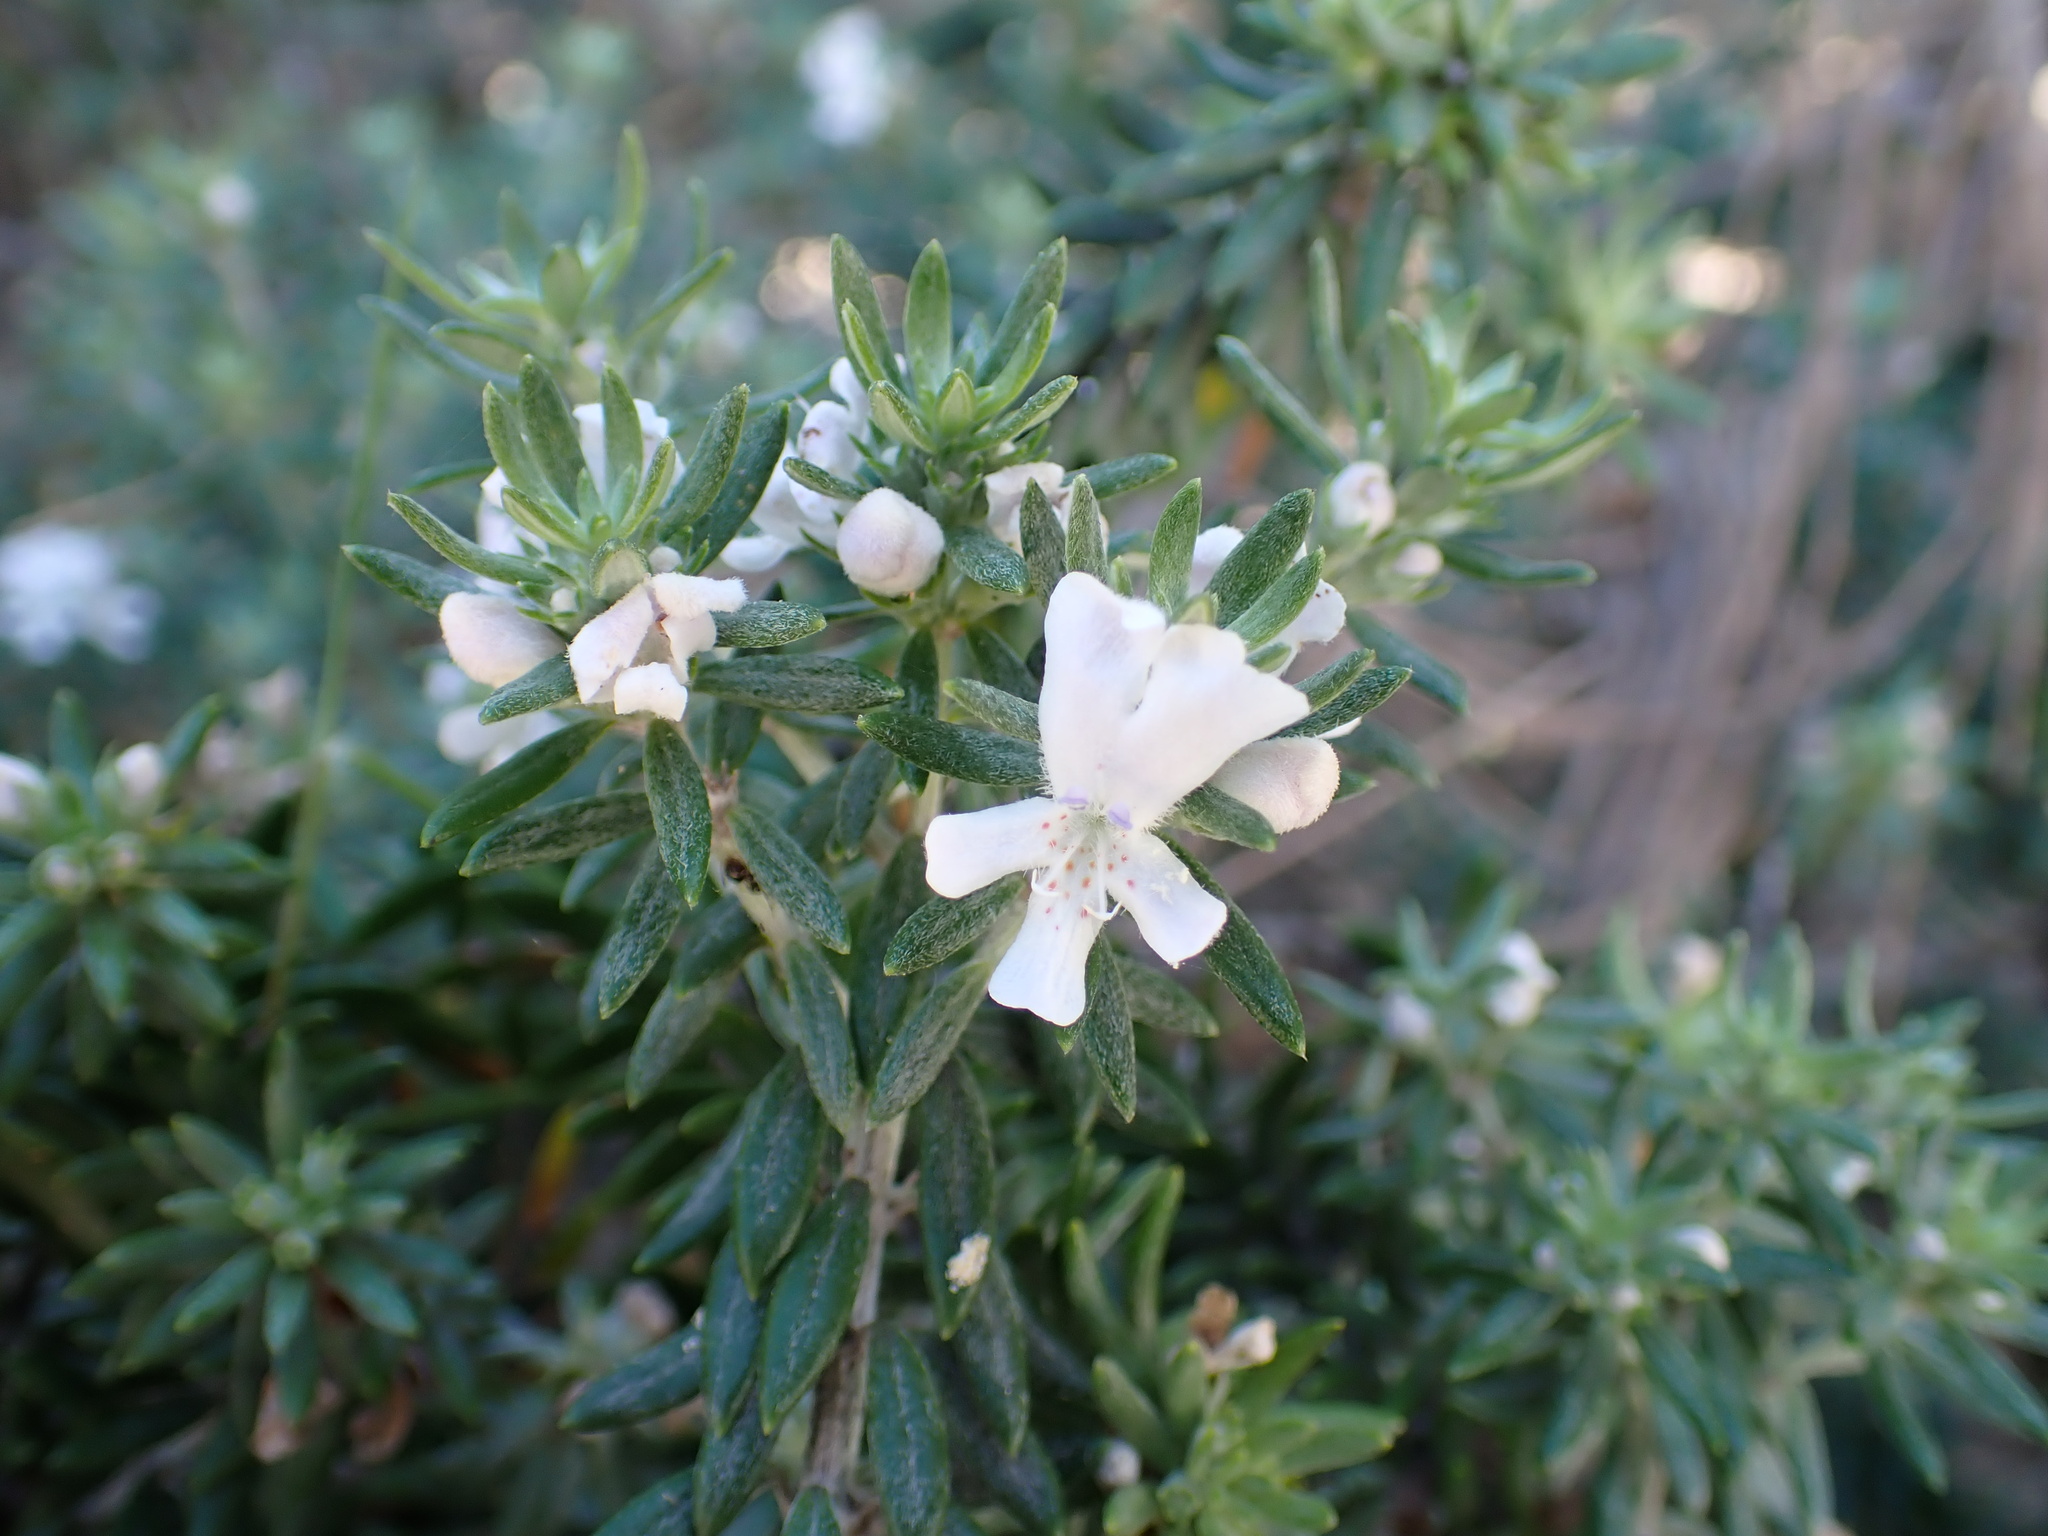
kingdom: Plantae
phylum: Tracheophyta
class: Magnoliopsida
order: Lamiales
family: Lamiaceae
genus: Westringia
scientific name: Westringia fruticosa
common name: Coastal-rosemary
